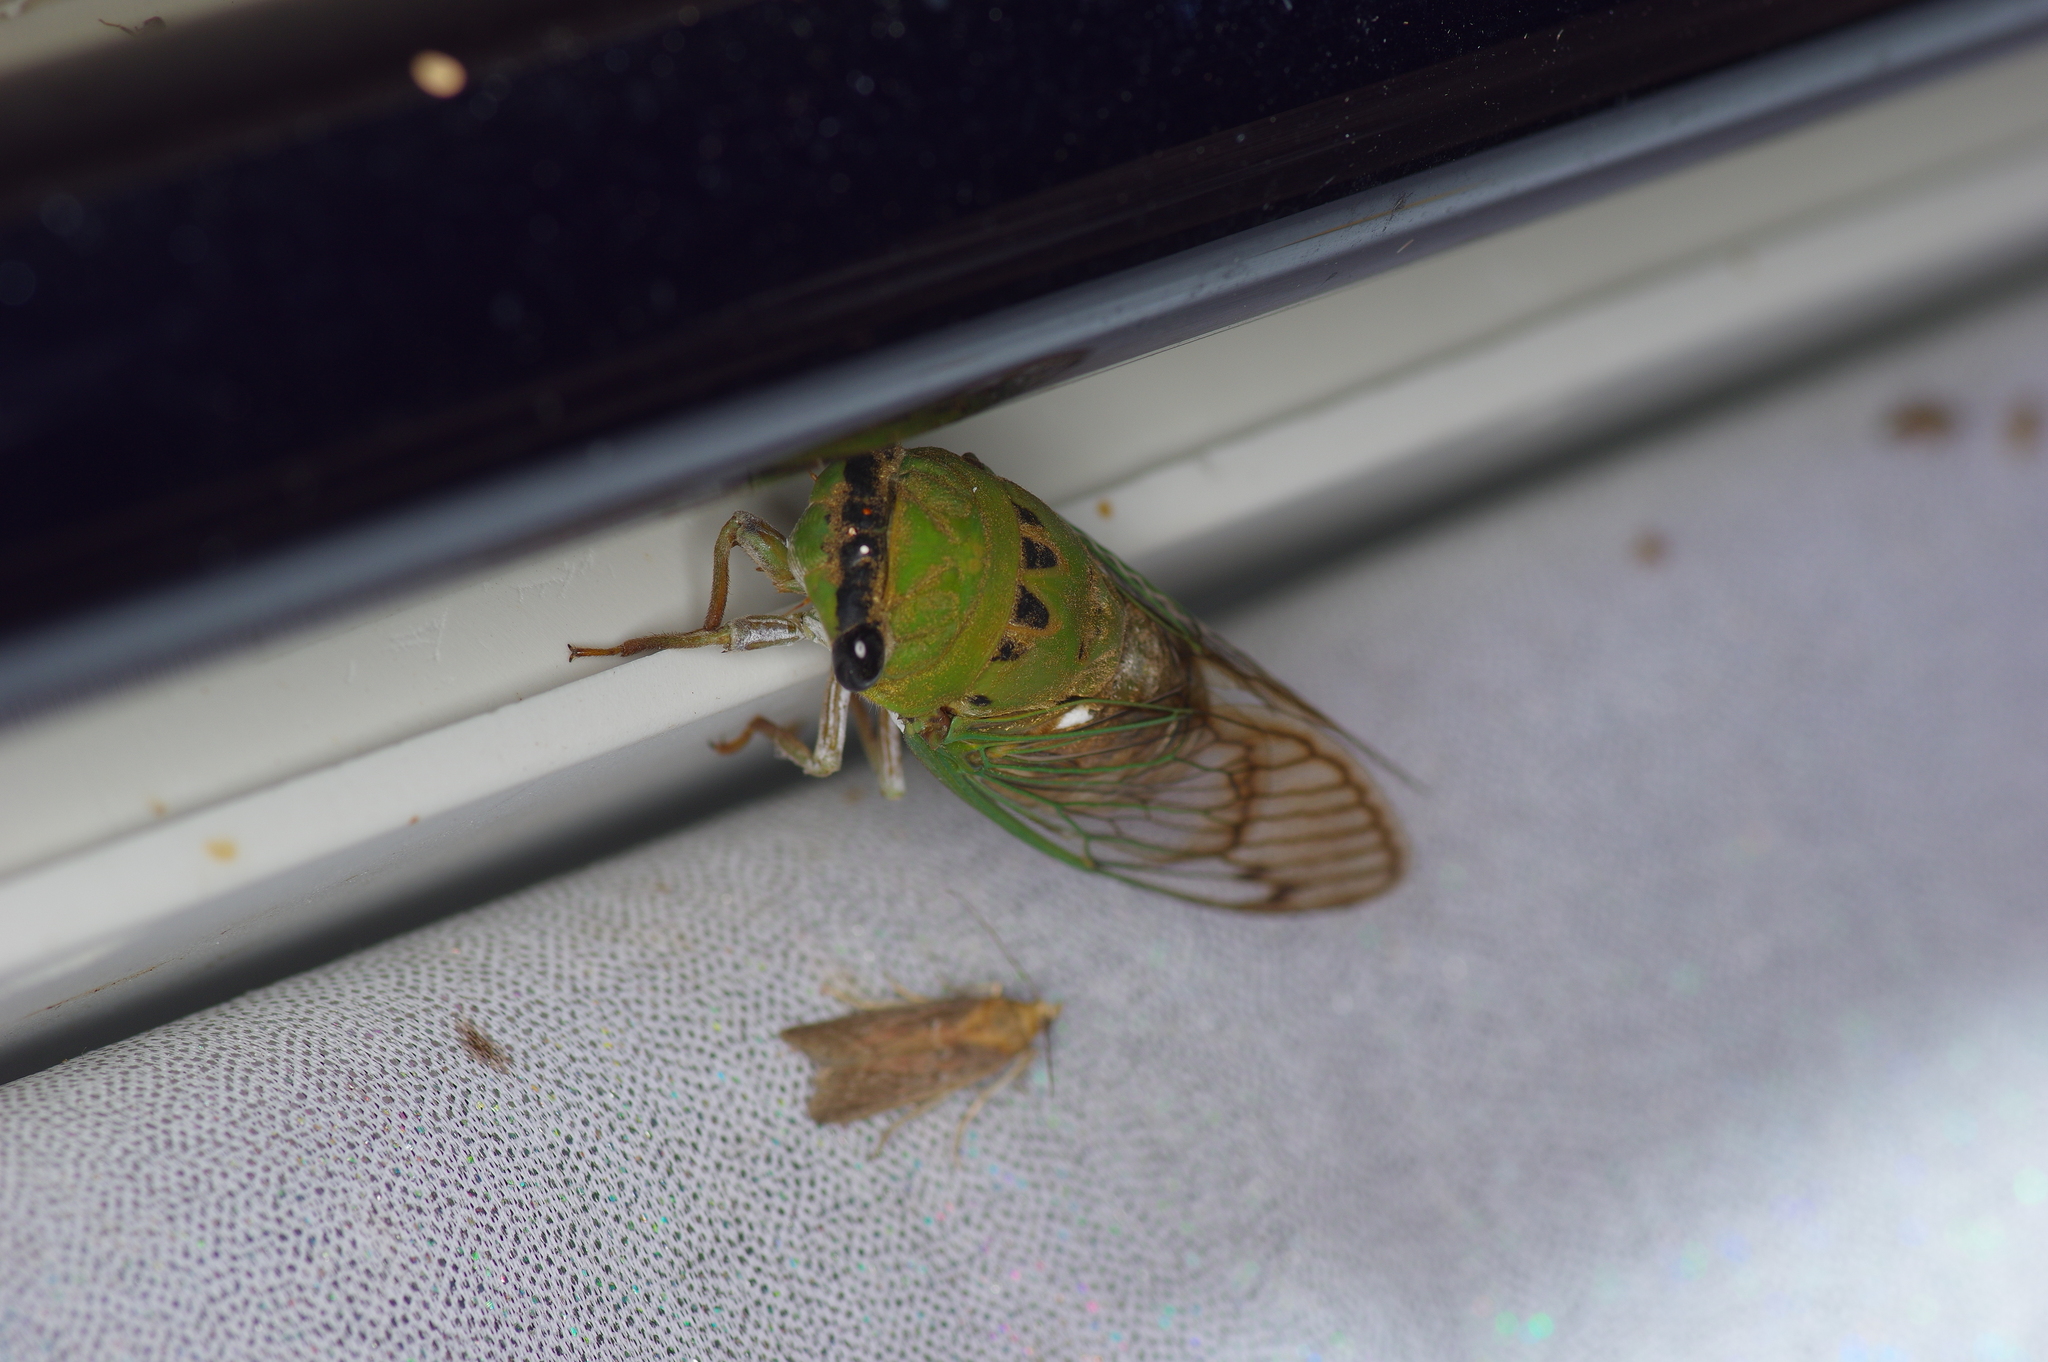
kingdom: Animalia
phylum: Arthropoda
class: Insecta
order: Hemiptera
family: Cicadidae
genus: Neotibicen
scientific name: Neotibicen superbus
